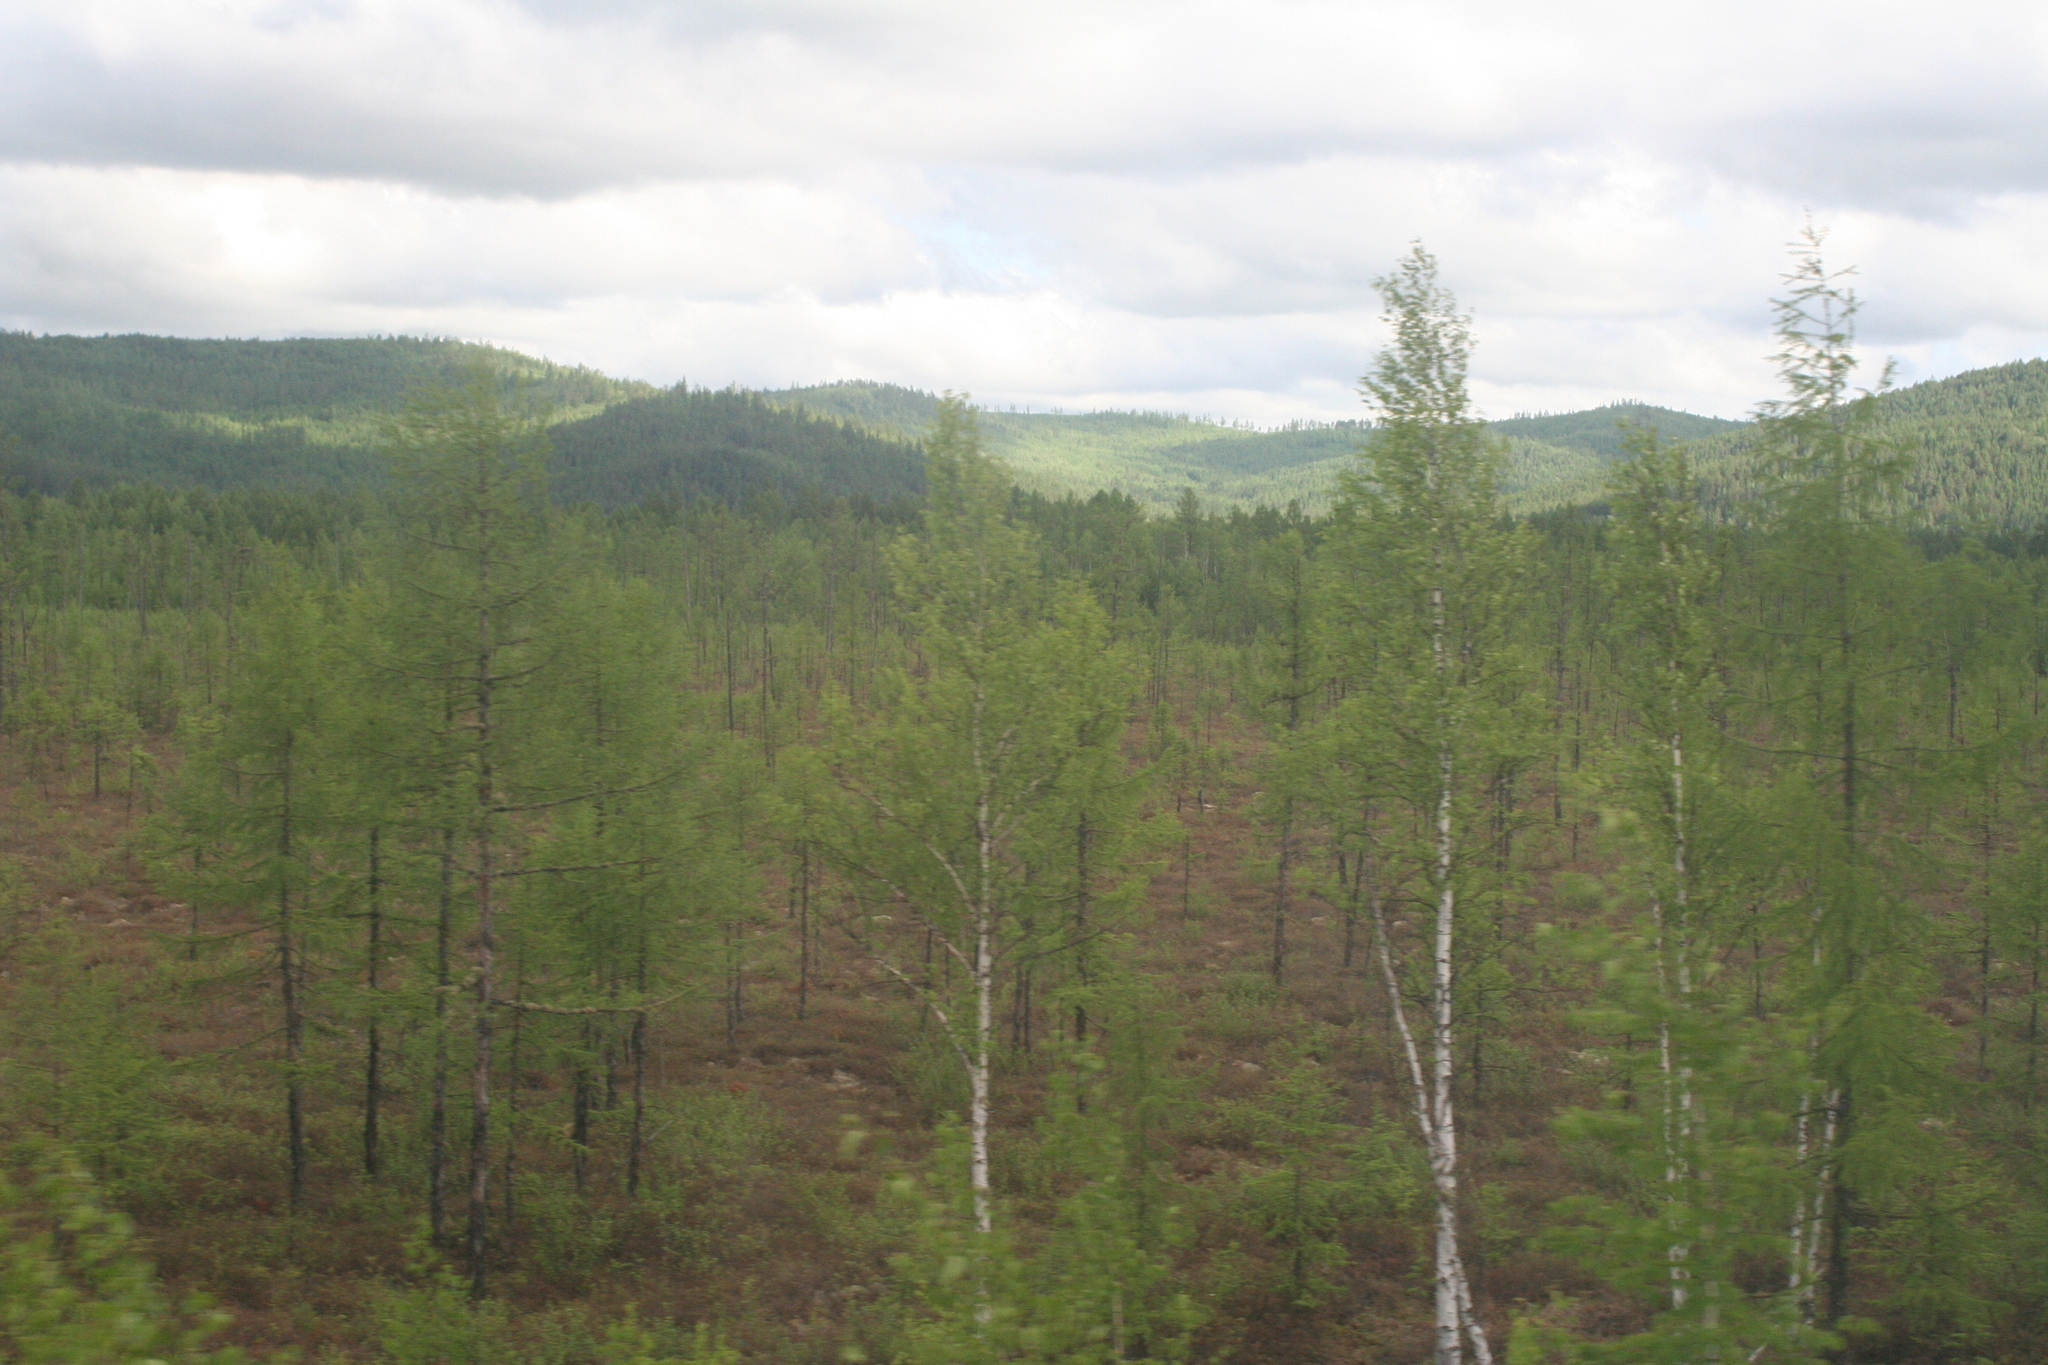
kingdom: Plantae
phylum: Tracheophyta
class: Pinopsida
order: Pinales
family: Pinaceae
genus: Larix
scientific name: Larix gmelinii
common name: Dahurian larch
